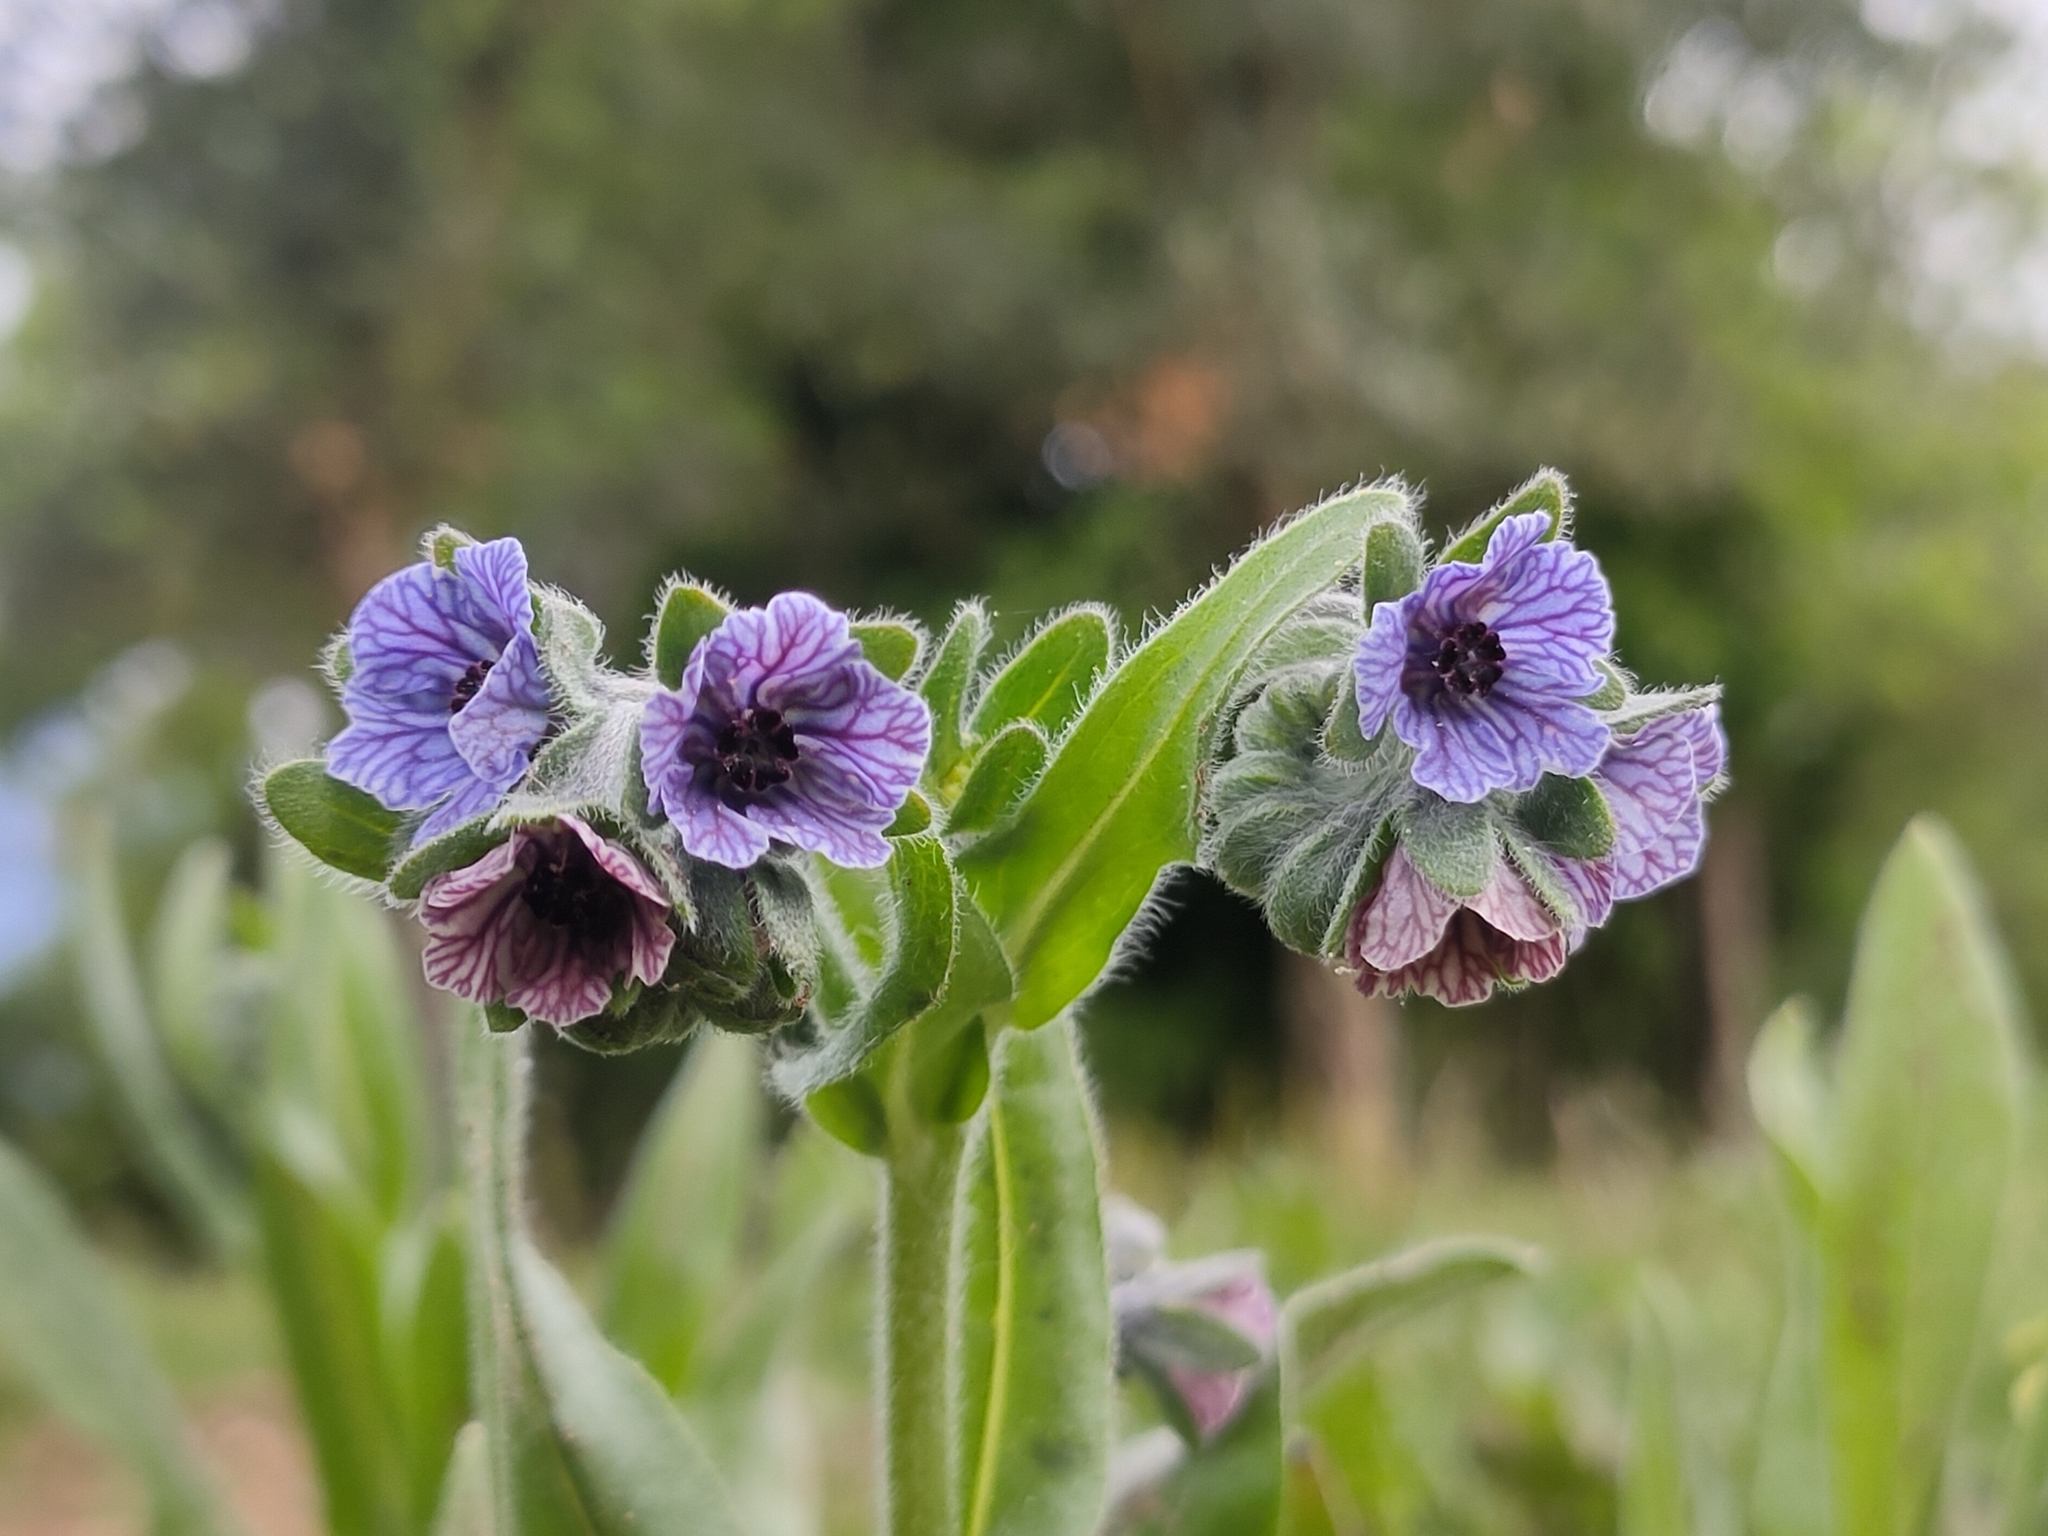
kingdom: Plantae
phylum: Tracheophyta
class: Magnoliopsida
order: Boraginales
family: Boraginaceae
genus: Cynoglossum
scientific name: Cynoglossum creticum
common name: Blue hound's tongue
